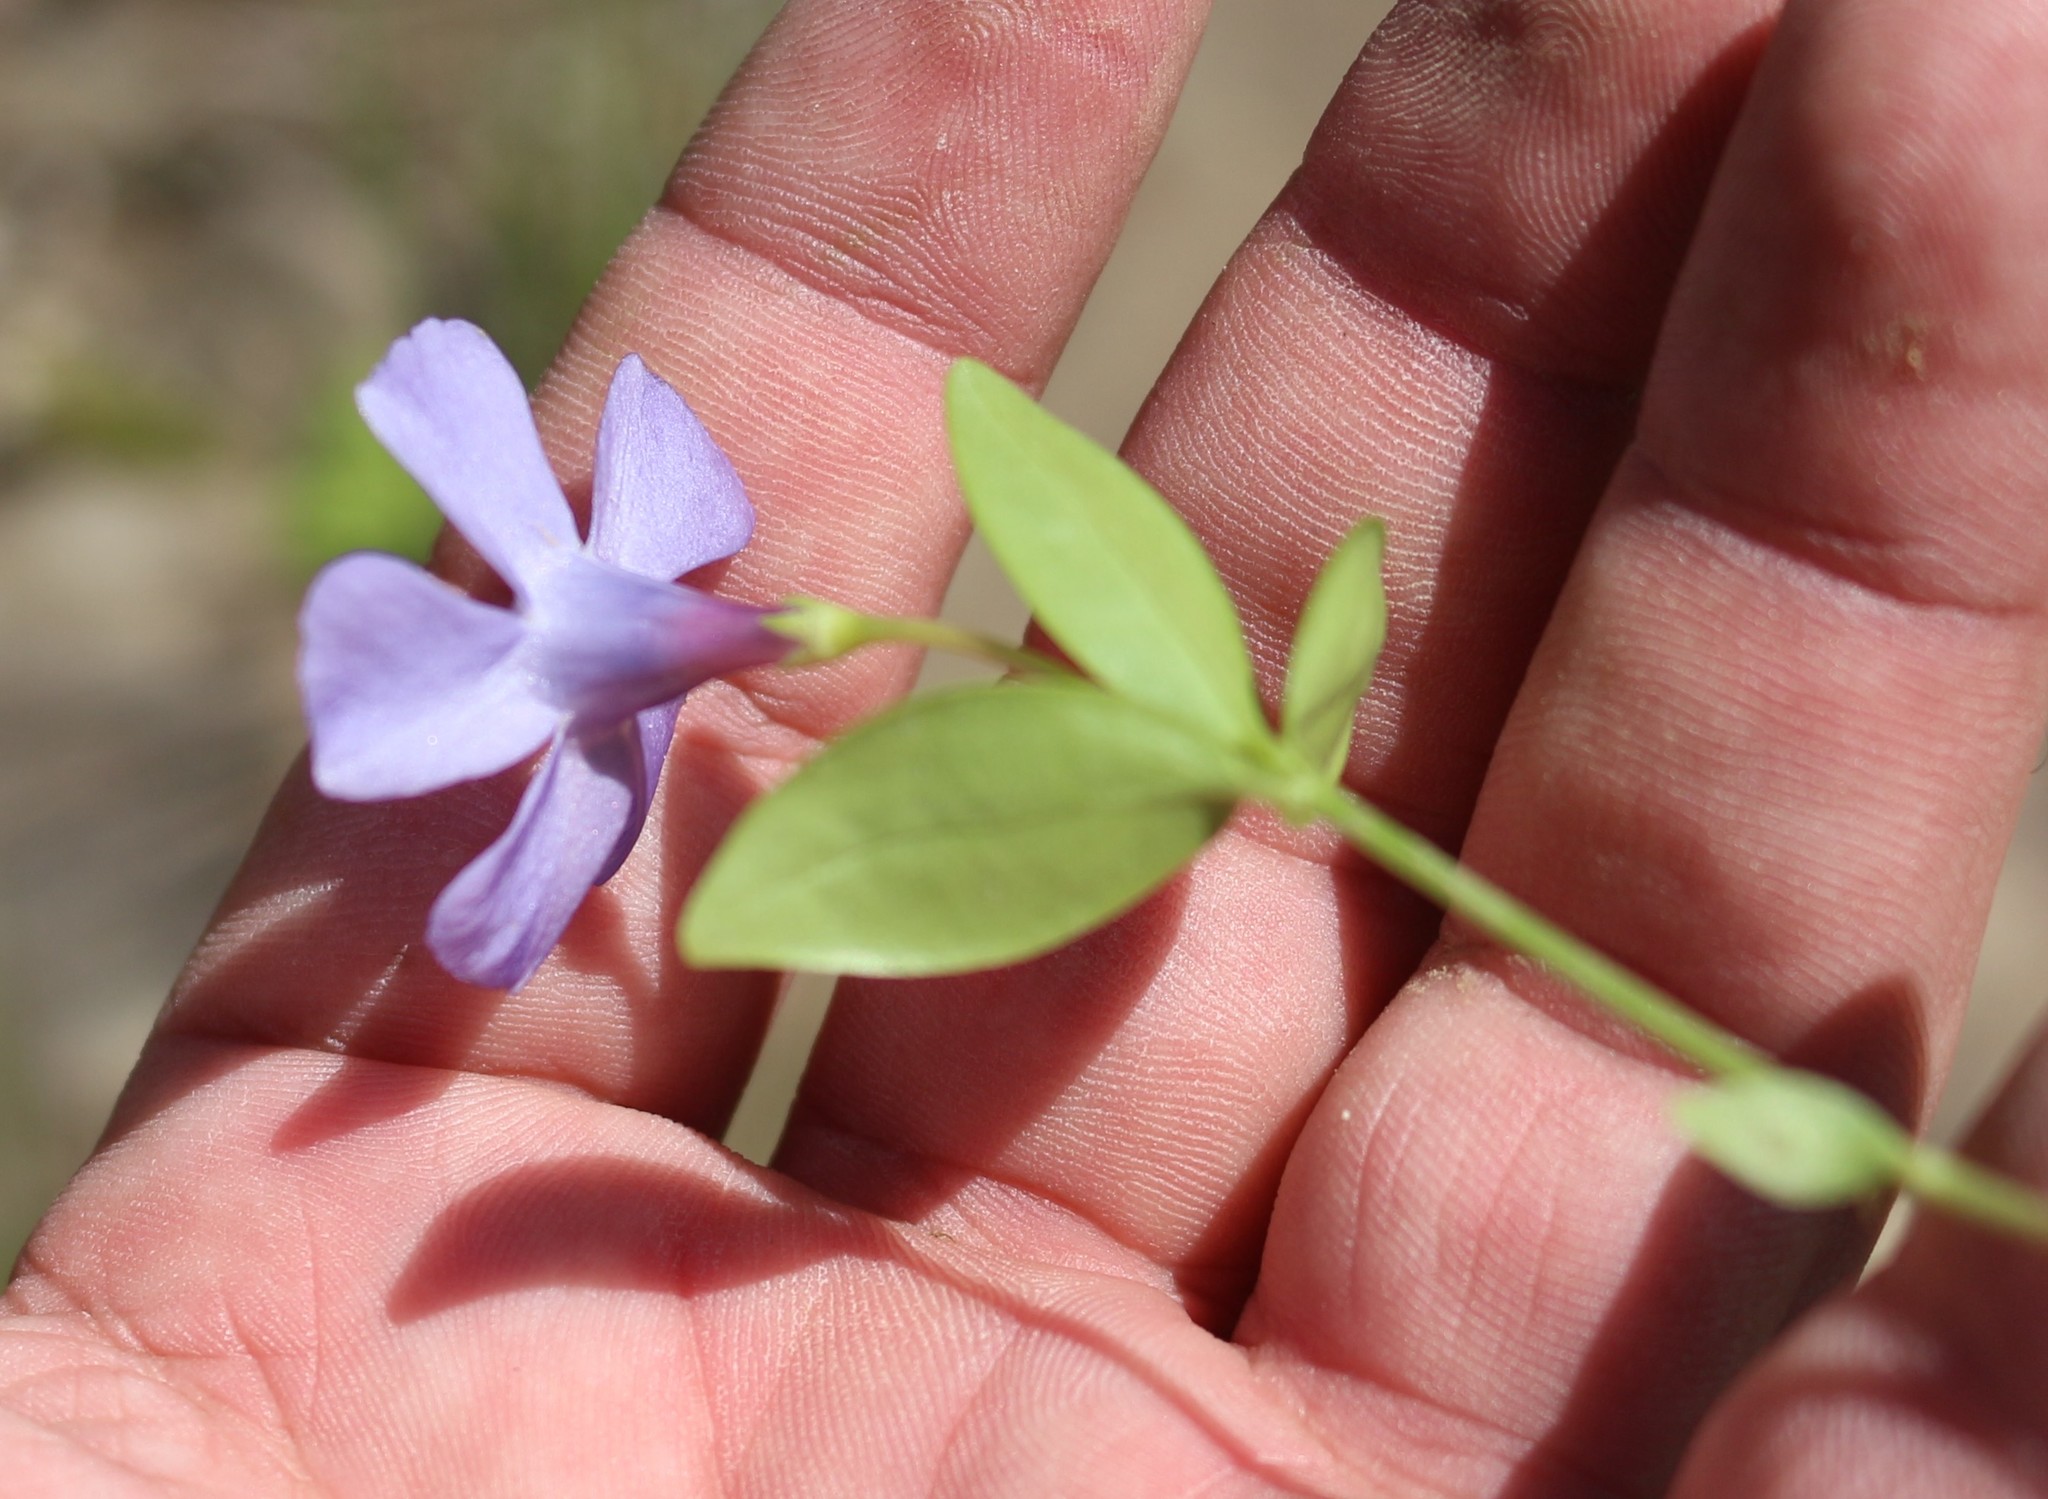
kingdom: Plantae
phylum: Tracheophyta
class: Magnoliopsida
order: Gentianales
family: Apocynaceae
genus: Vinca
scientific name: Vinca minor
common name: Lesser periwinkle
